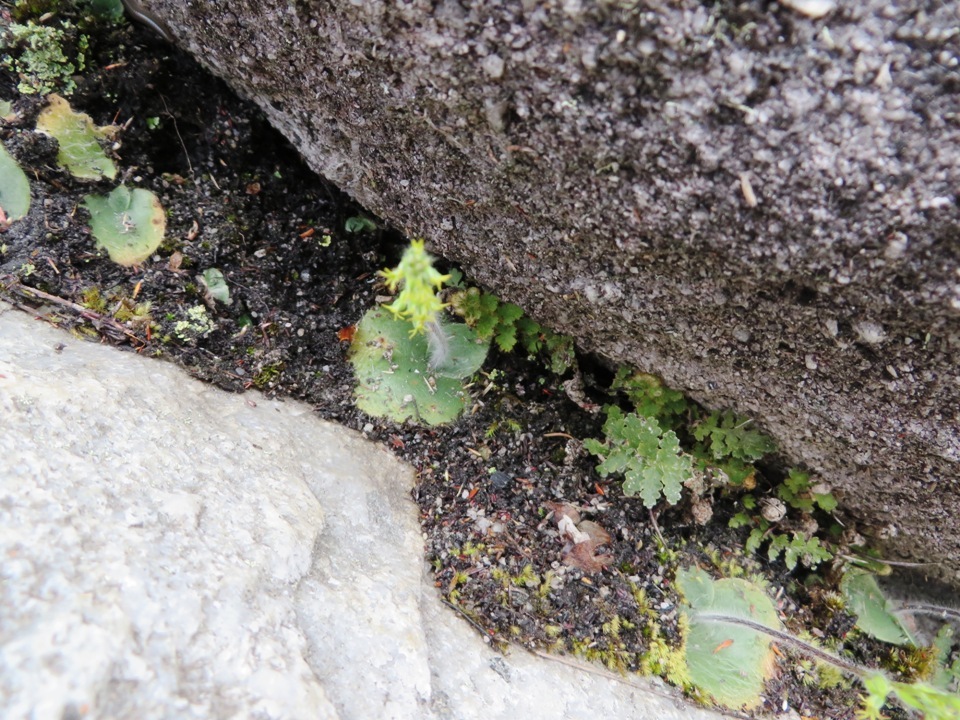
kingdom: Plantae
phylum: Tracheophyta
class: Liliopsida
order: Asparagales
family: Orchidaceae
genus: Holothrix
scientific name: Holothrix villosa
